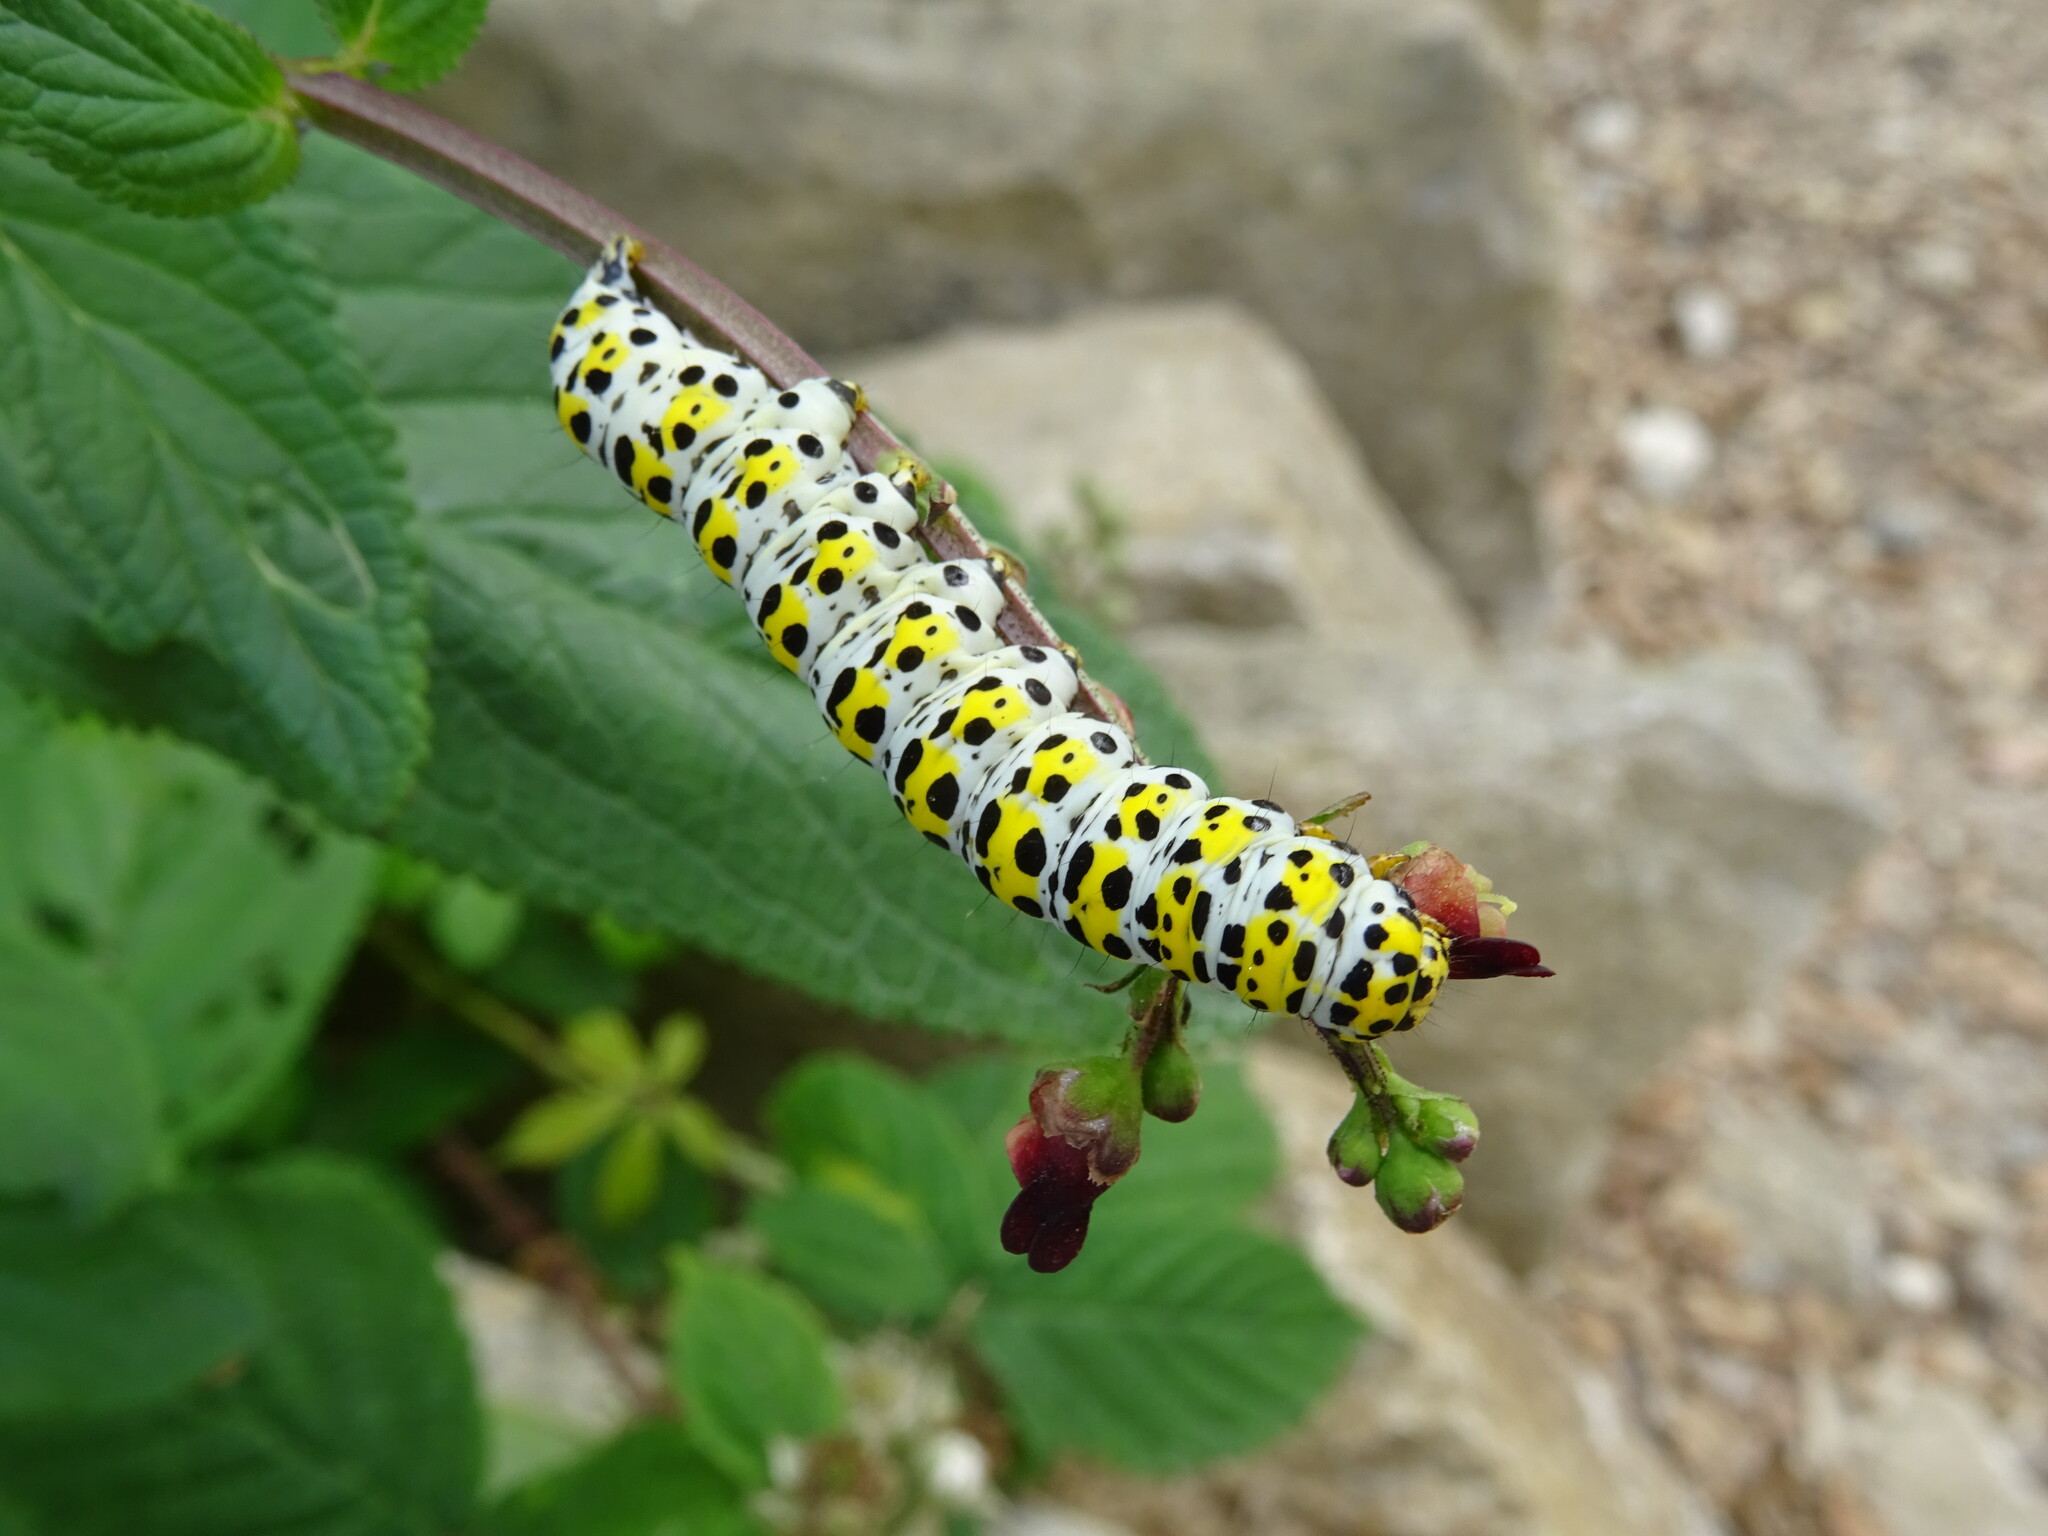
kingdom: Animalia
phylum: Arthropoda
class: Insecta
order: Lepidoptera
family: Noctuidae
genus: Cucullia
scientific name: Cucullia verbasci
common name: Mullein
